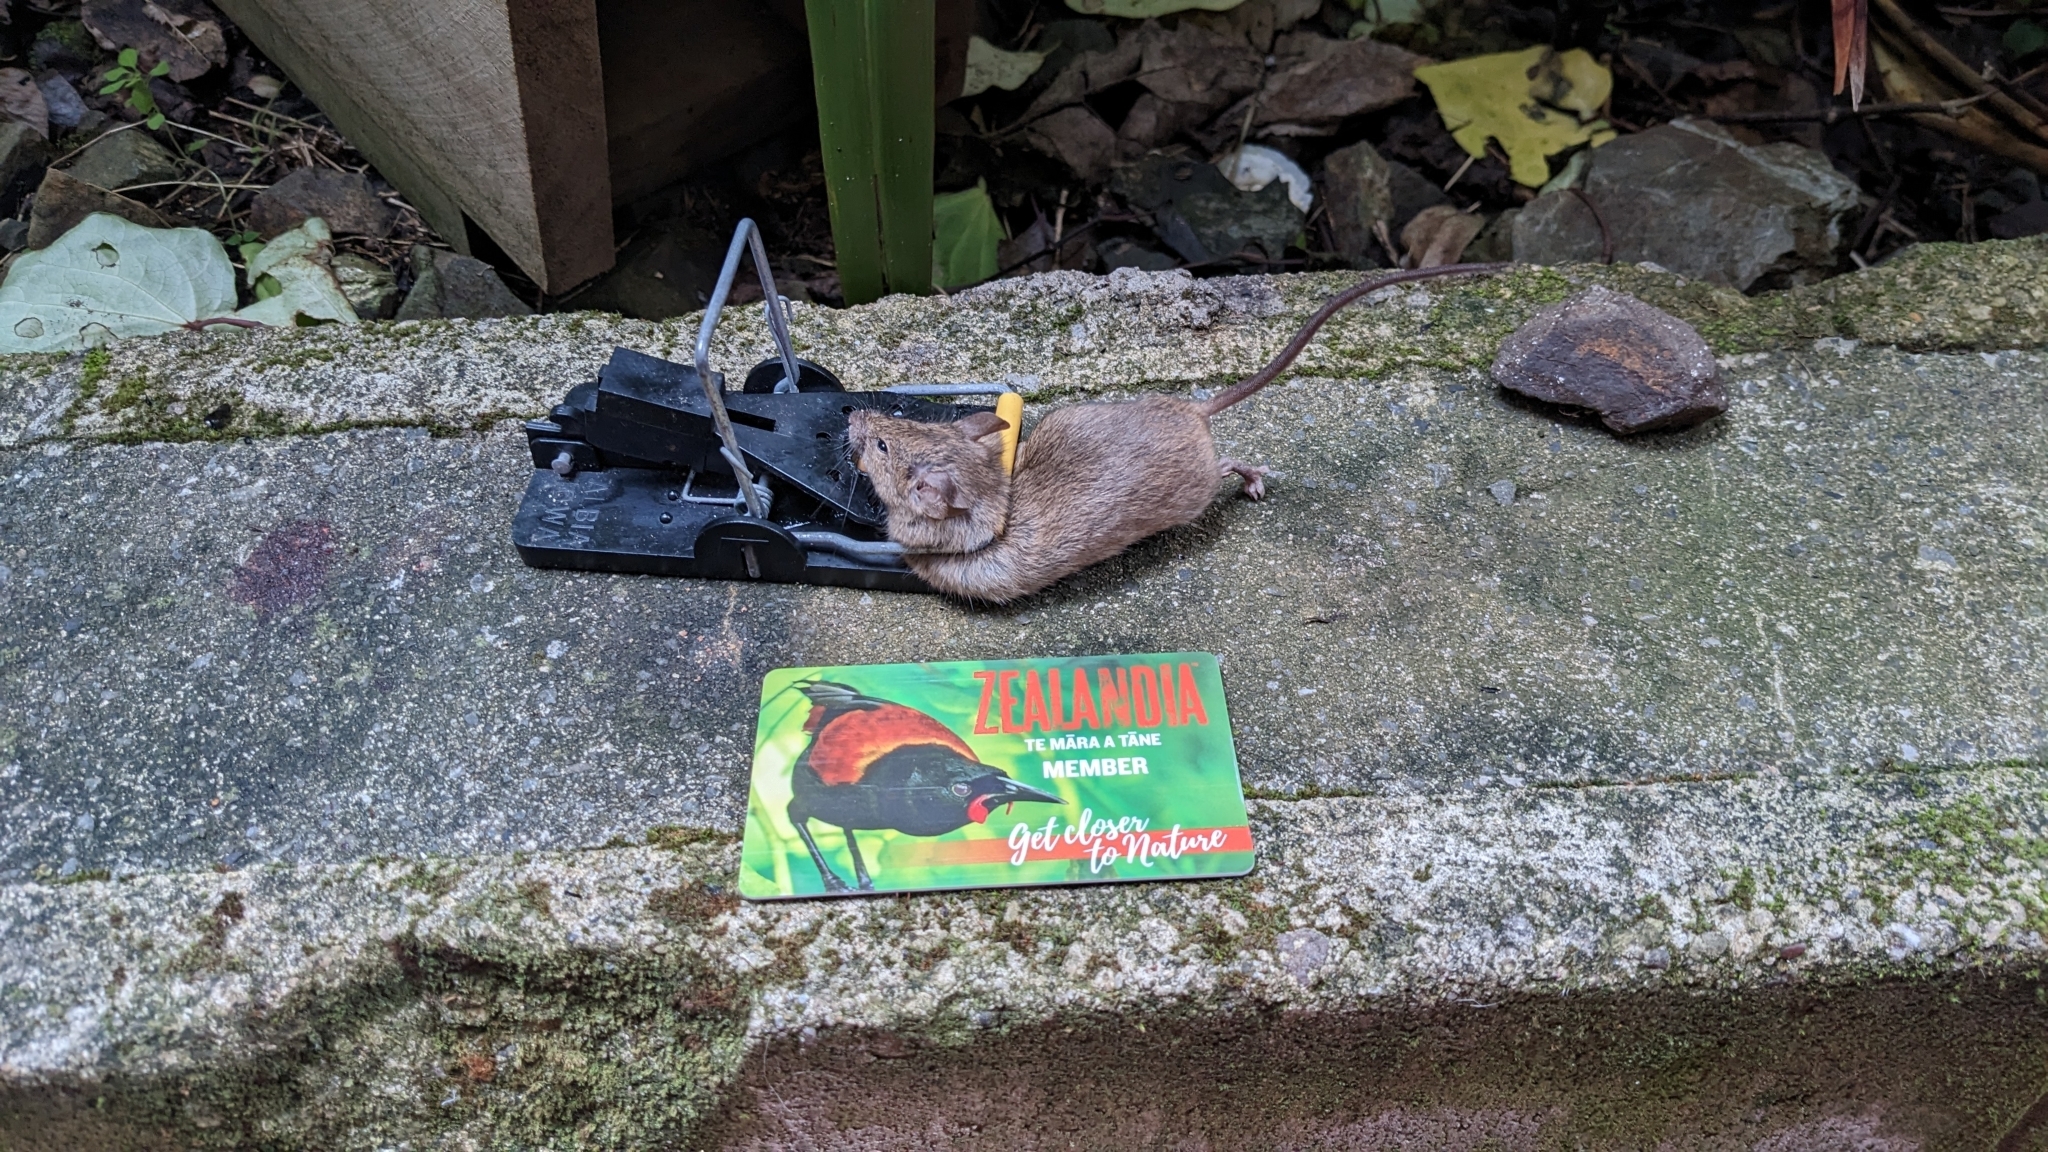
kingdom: Animalia
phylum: Chordata
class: Mammalia
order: Rodentia
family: Muridae
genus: Mus
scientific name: Mus musculus
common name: House mouse
